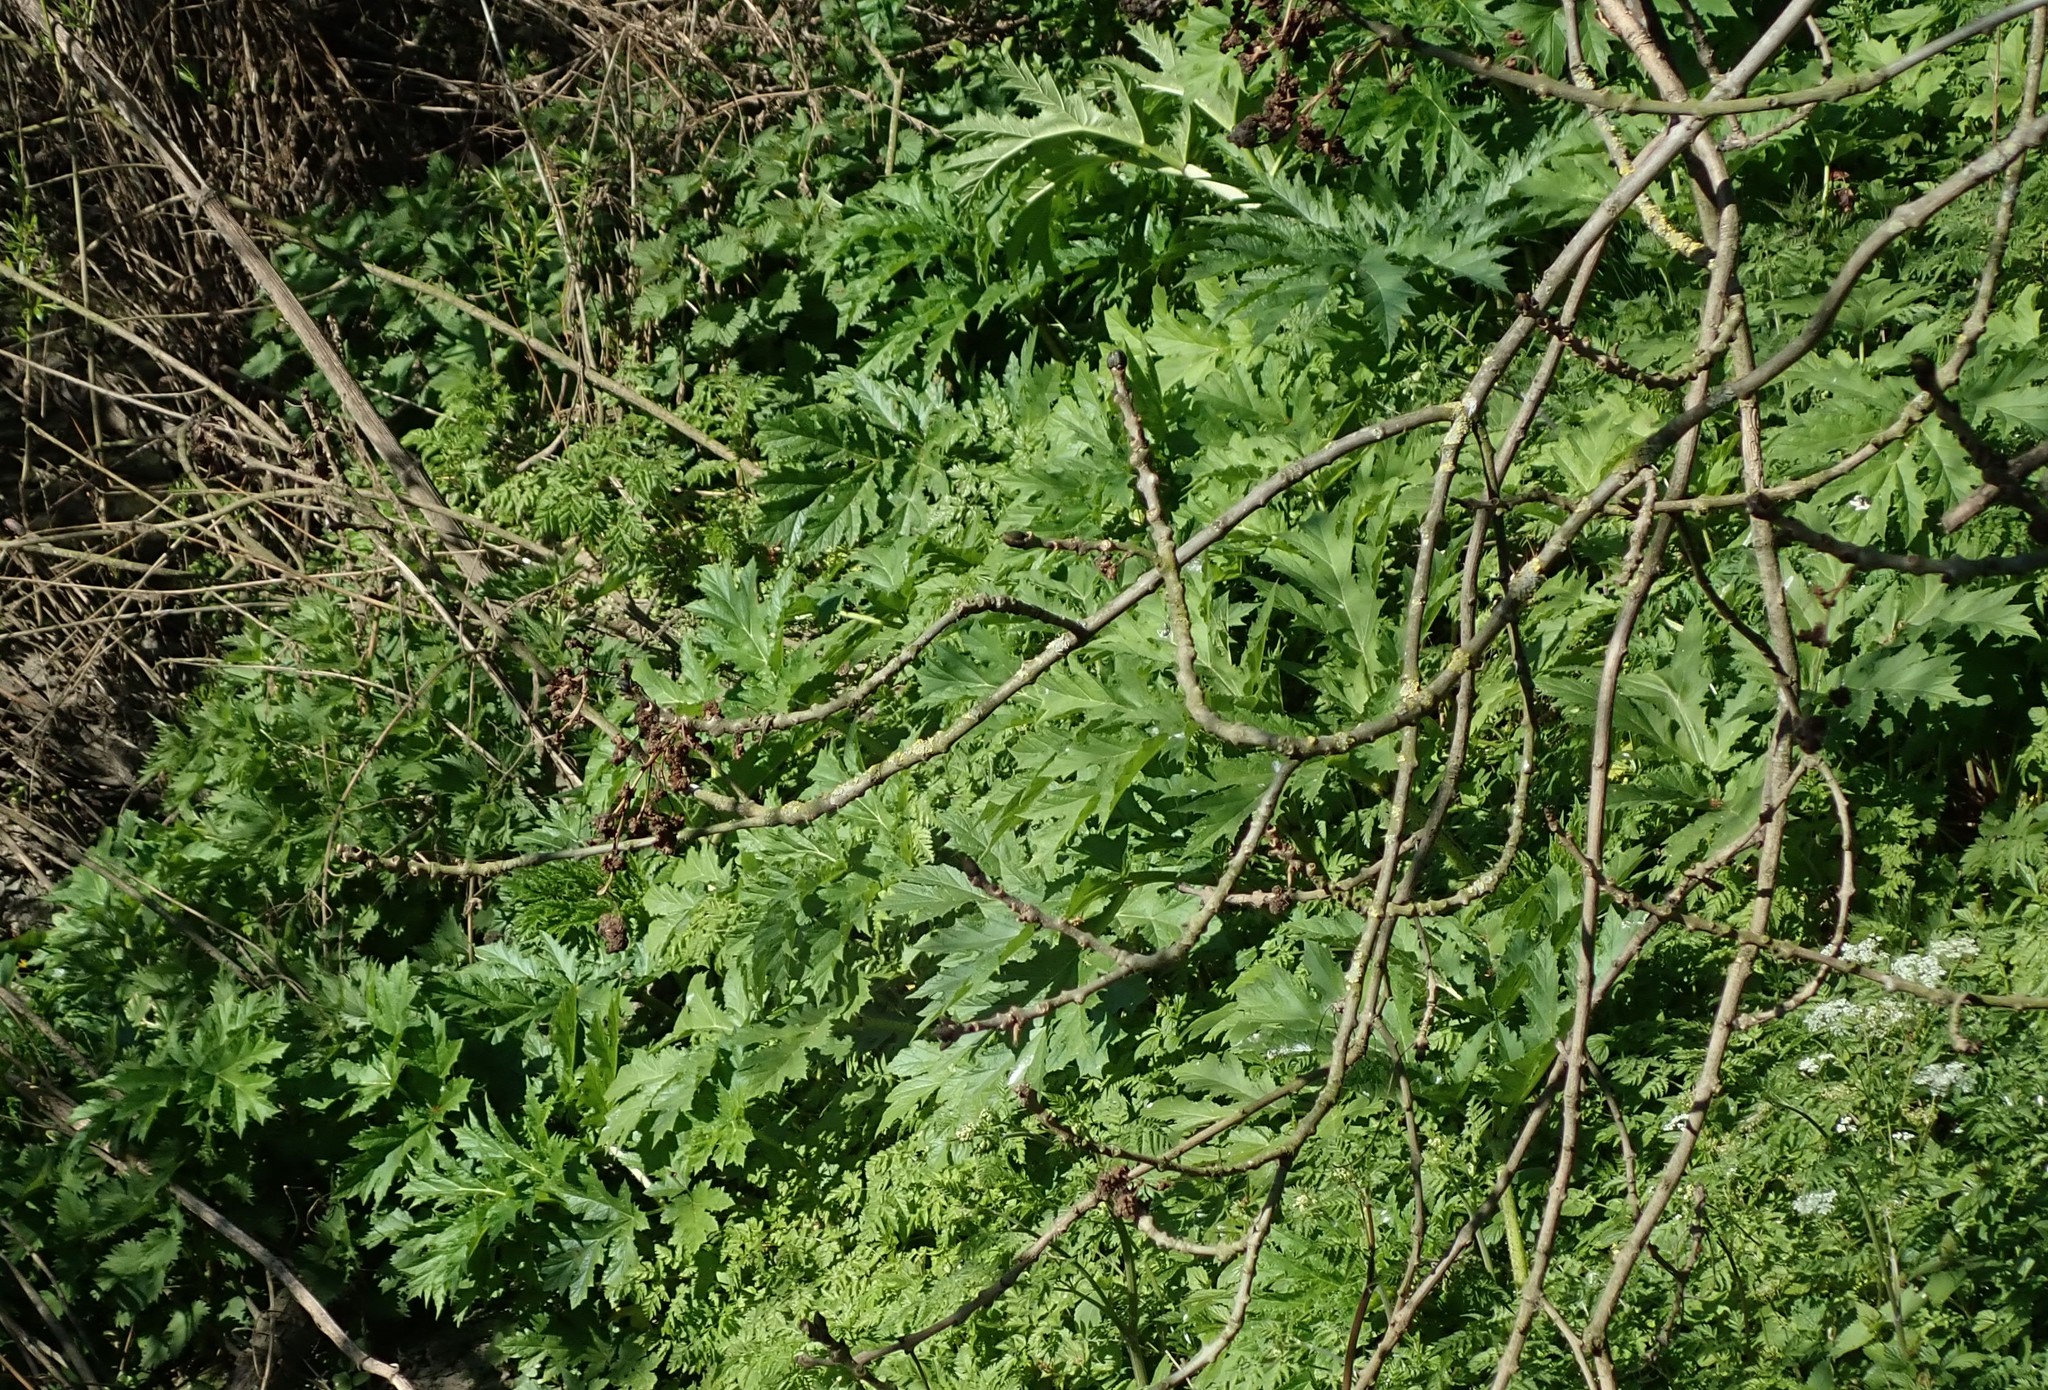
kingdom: Plantae
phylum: Tracheophyta
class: Magnoliopsida
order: Apiales
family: Apiaceae
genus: Heracleum
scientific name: Heracleum mantegazzianum
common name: Giant hogweed
